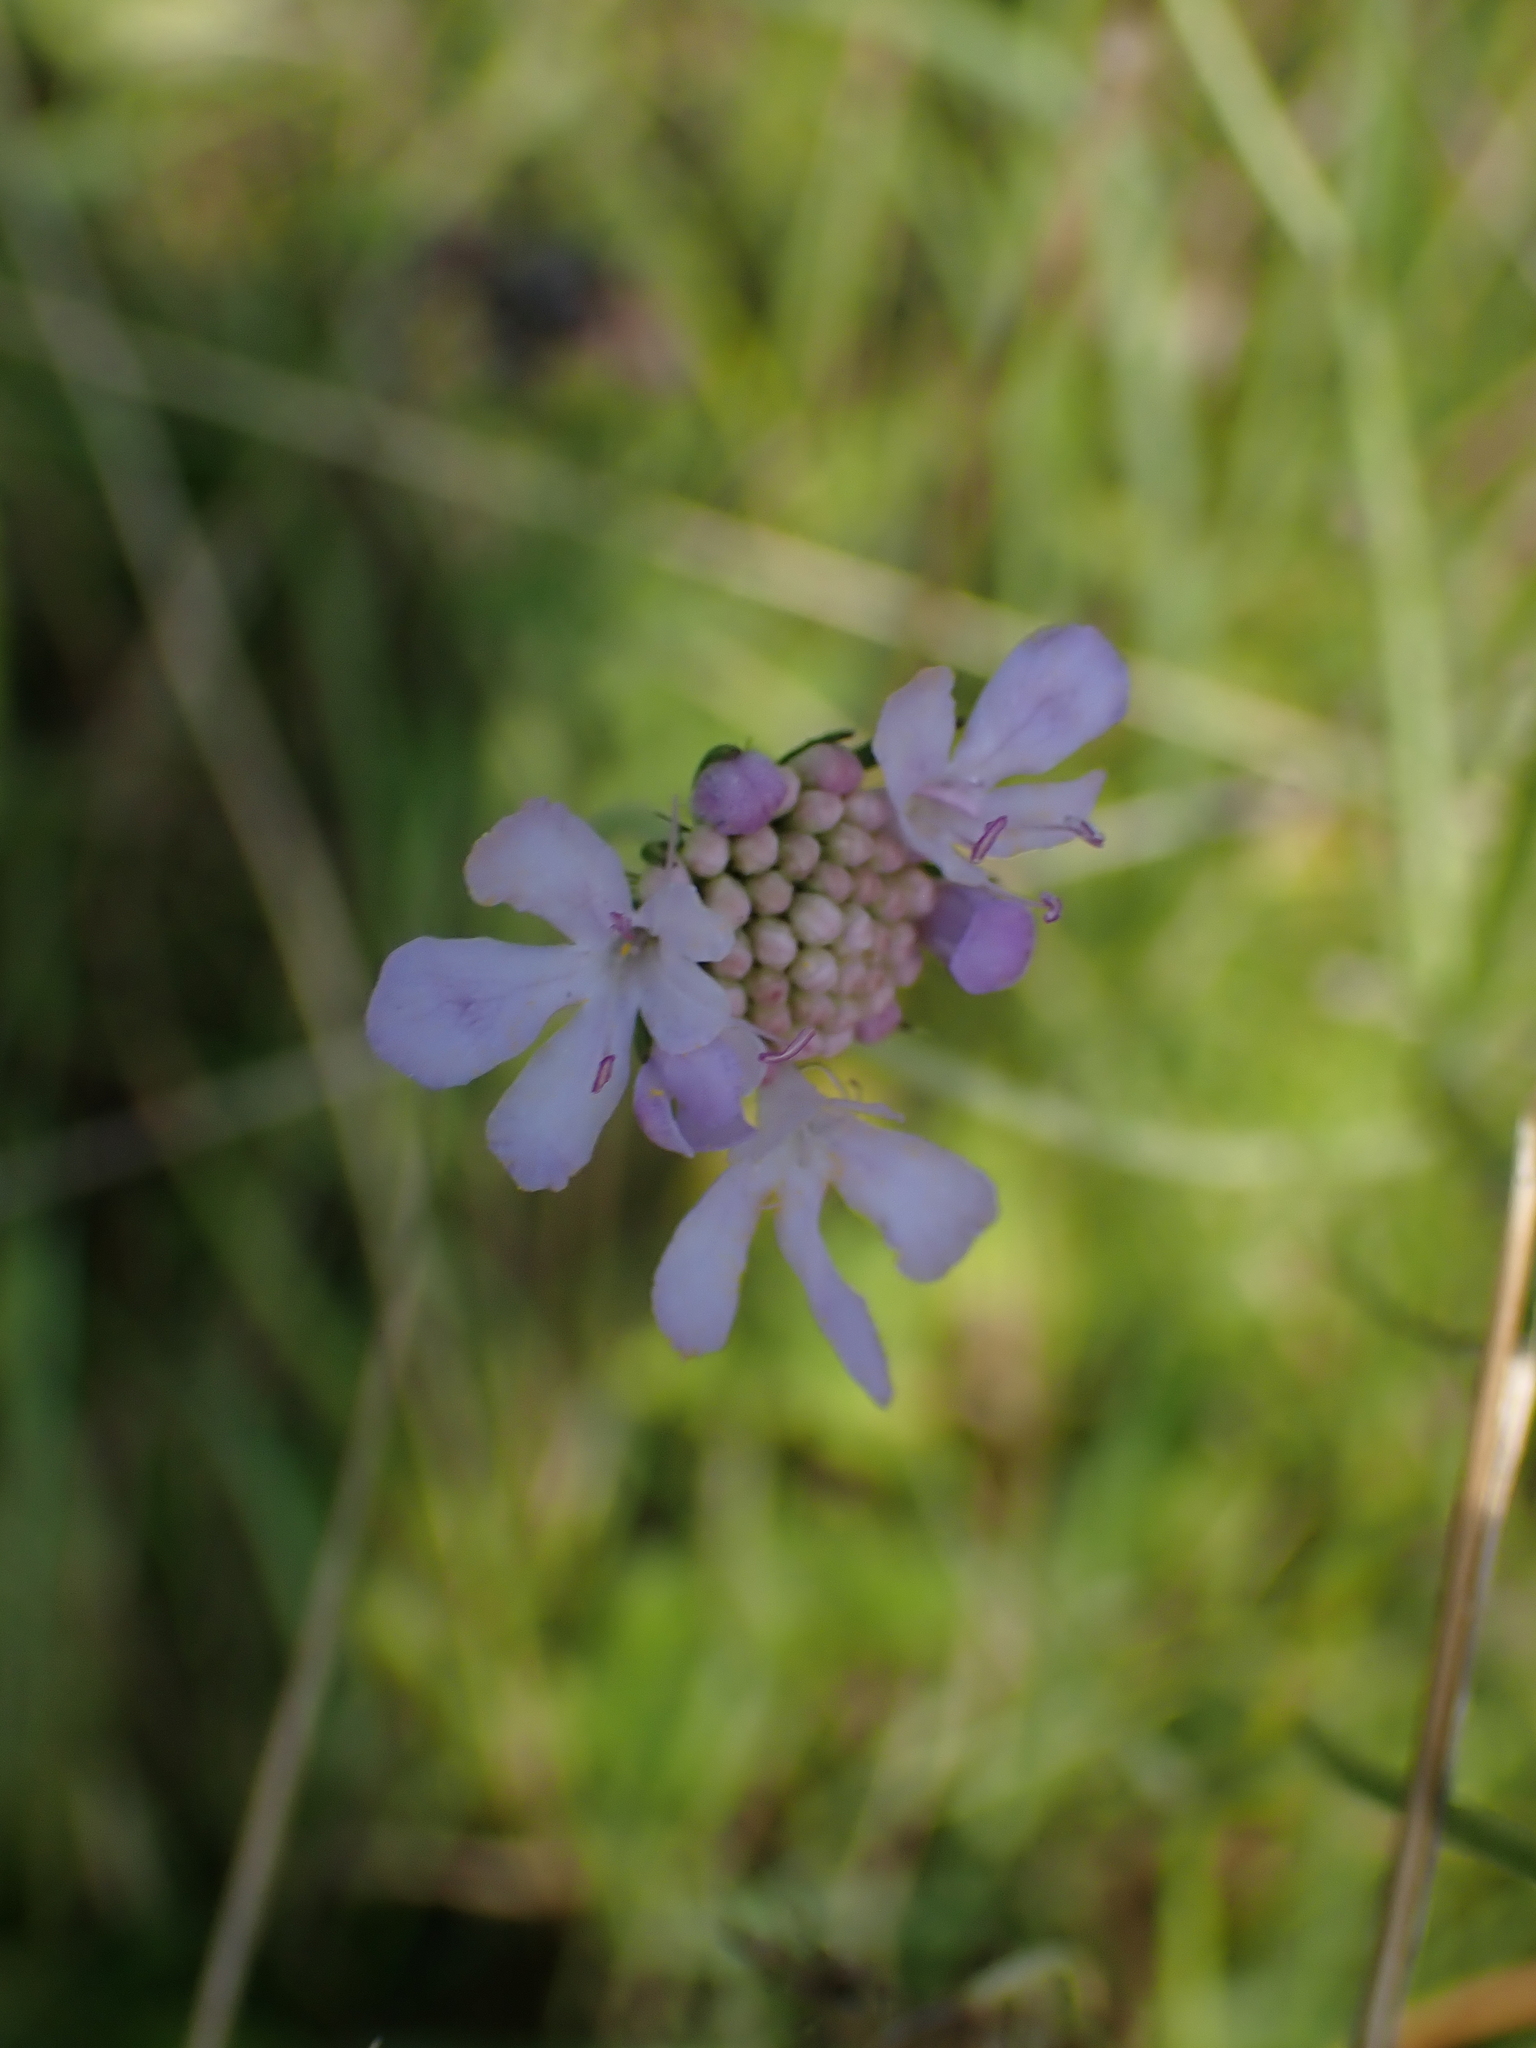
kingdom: Plantae
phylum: Tracheophyta
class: Magnoliopsida
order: Dipsacales
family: Caprifoliaceae
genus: Scabiosa
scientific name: Scabiosa columbaria
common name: Small scabious
